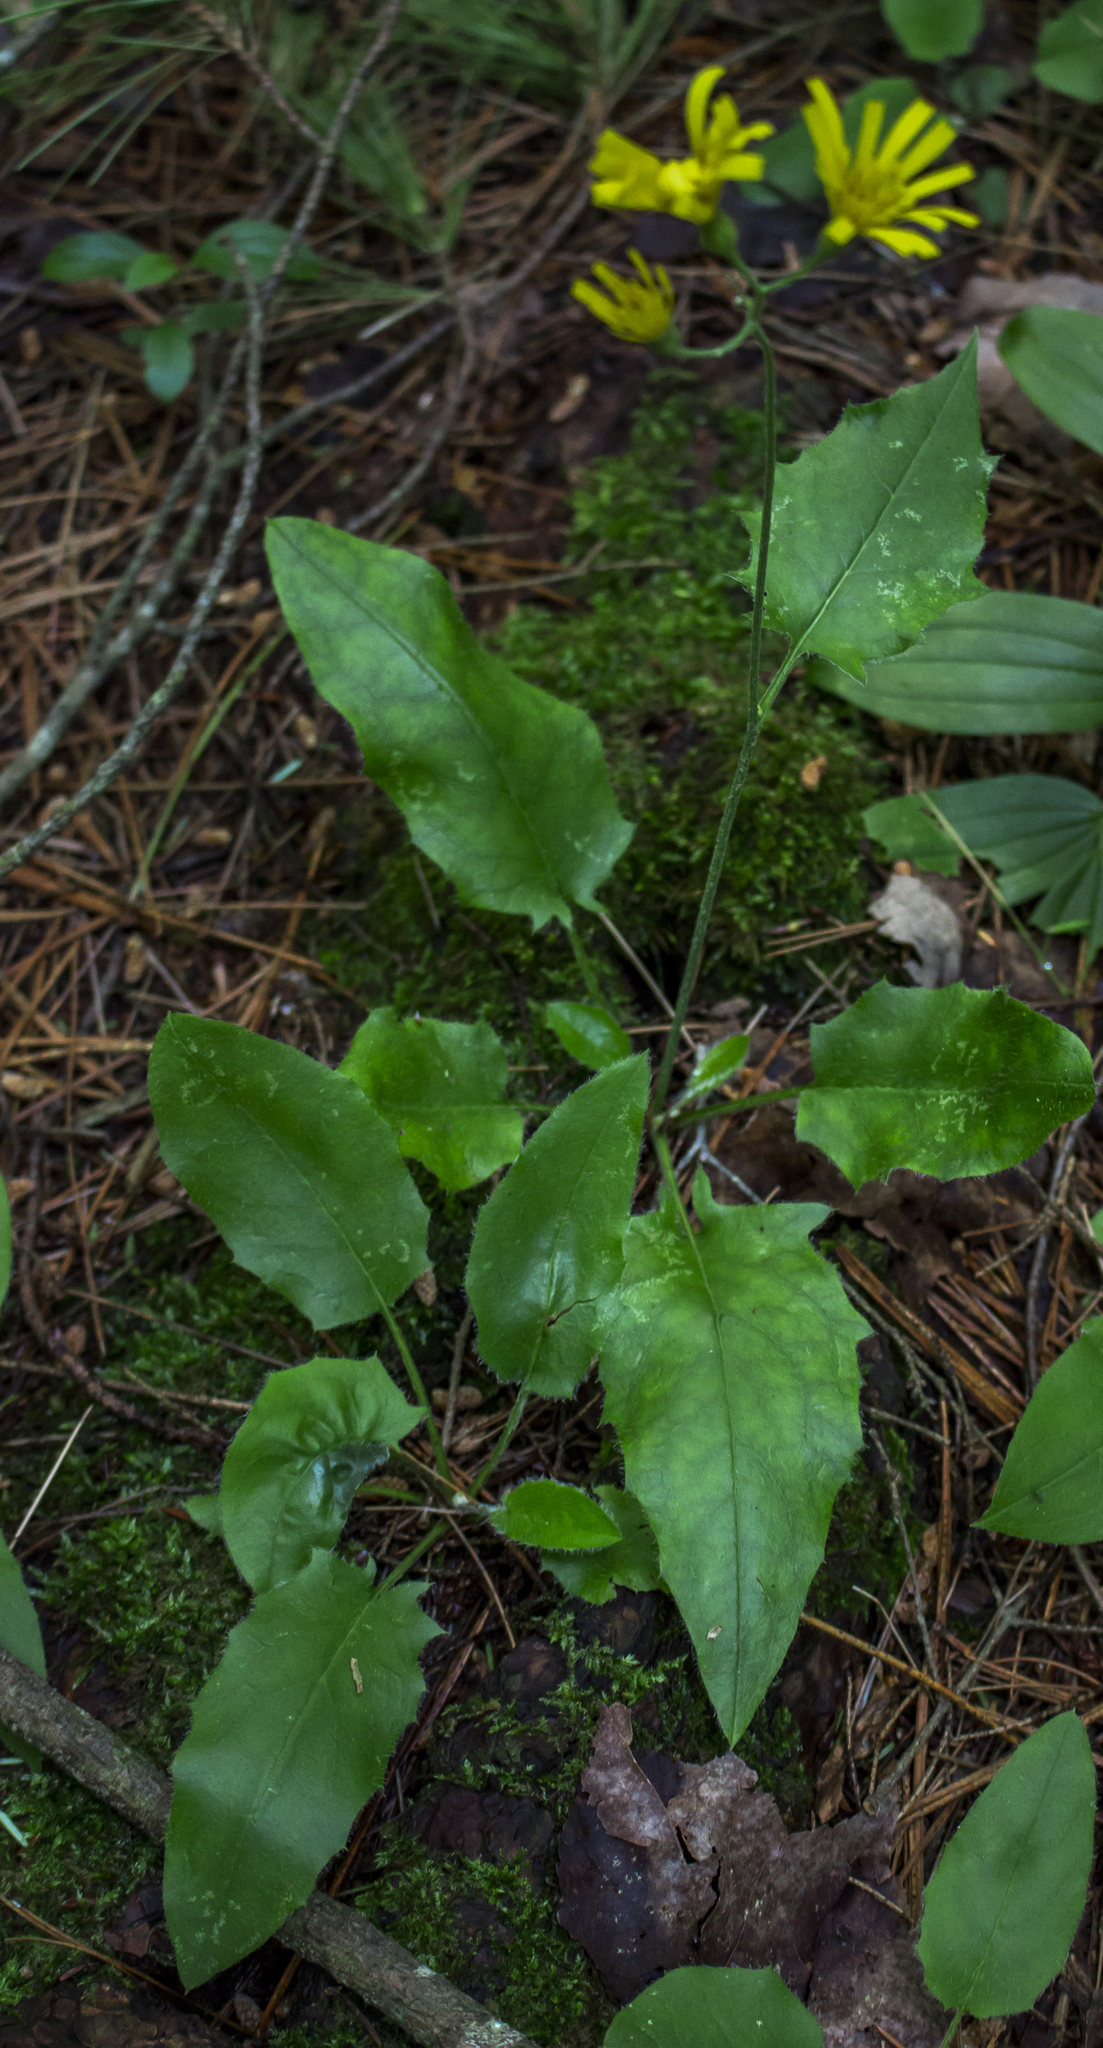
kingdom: Plantae
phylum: Tracheophyta
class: Magnoliopsida
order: Asterales
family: Asteraceae
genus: Hieracium
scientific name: Hieracium murorum
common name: Wall hawkweed
